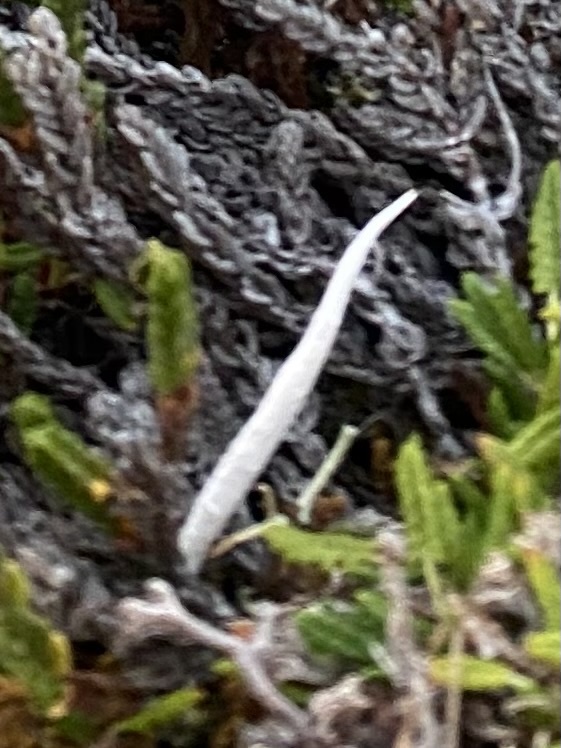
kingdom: Fungi
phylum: Ascomycota
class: Lecanoromycetes
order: Pertusariales
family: Icmadophilaceae
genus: Thamnolia
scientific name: Thamnolia vermicularis
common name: Whiteworm lichen
